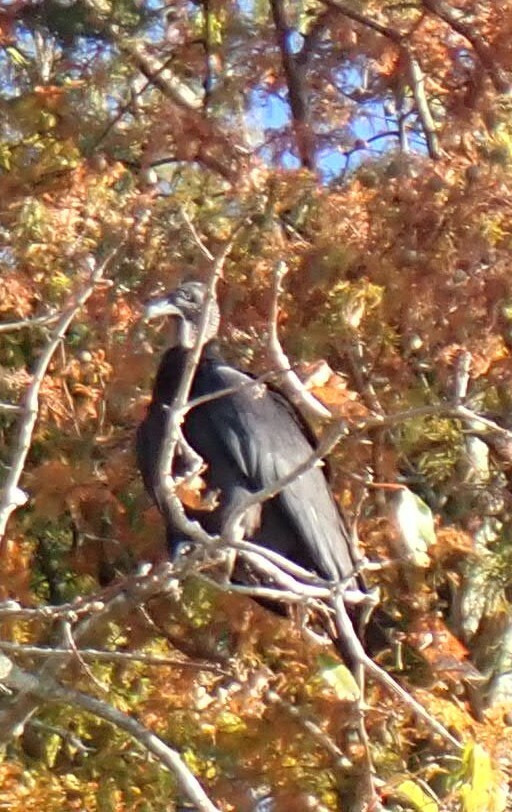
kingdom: Animalia
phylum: Chordata
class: Aves
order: Accipitriformes
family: Cathartidae
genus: Coragyps
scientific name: Coragyps atratus
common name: Black vulture
